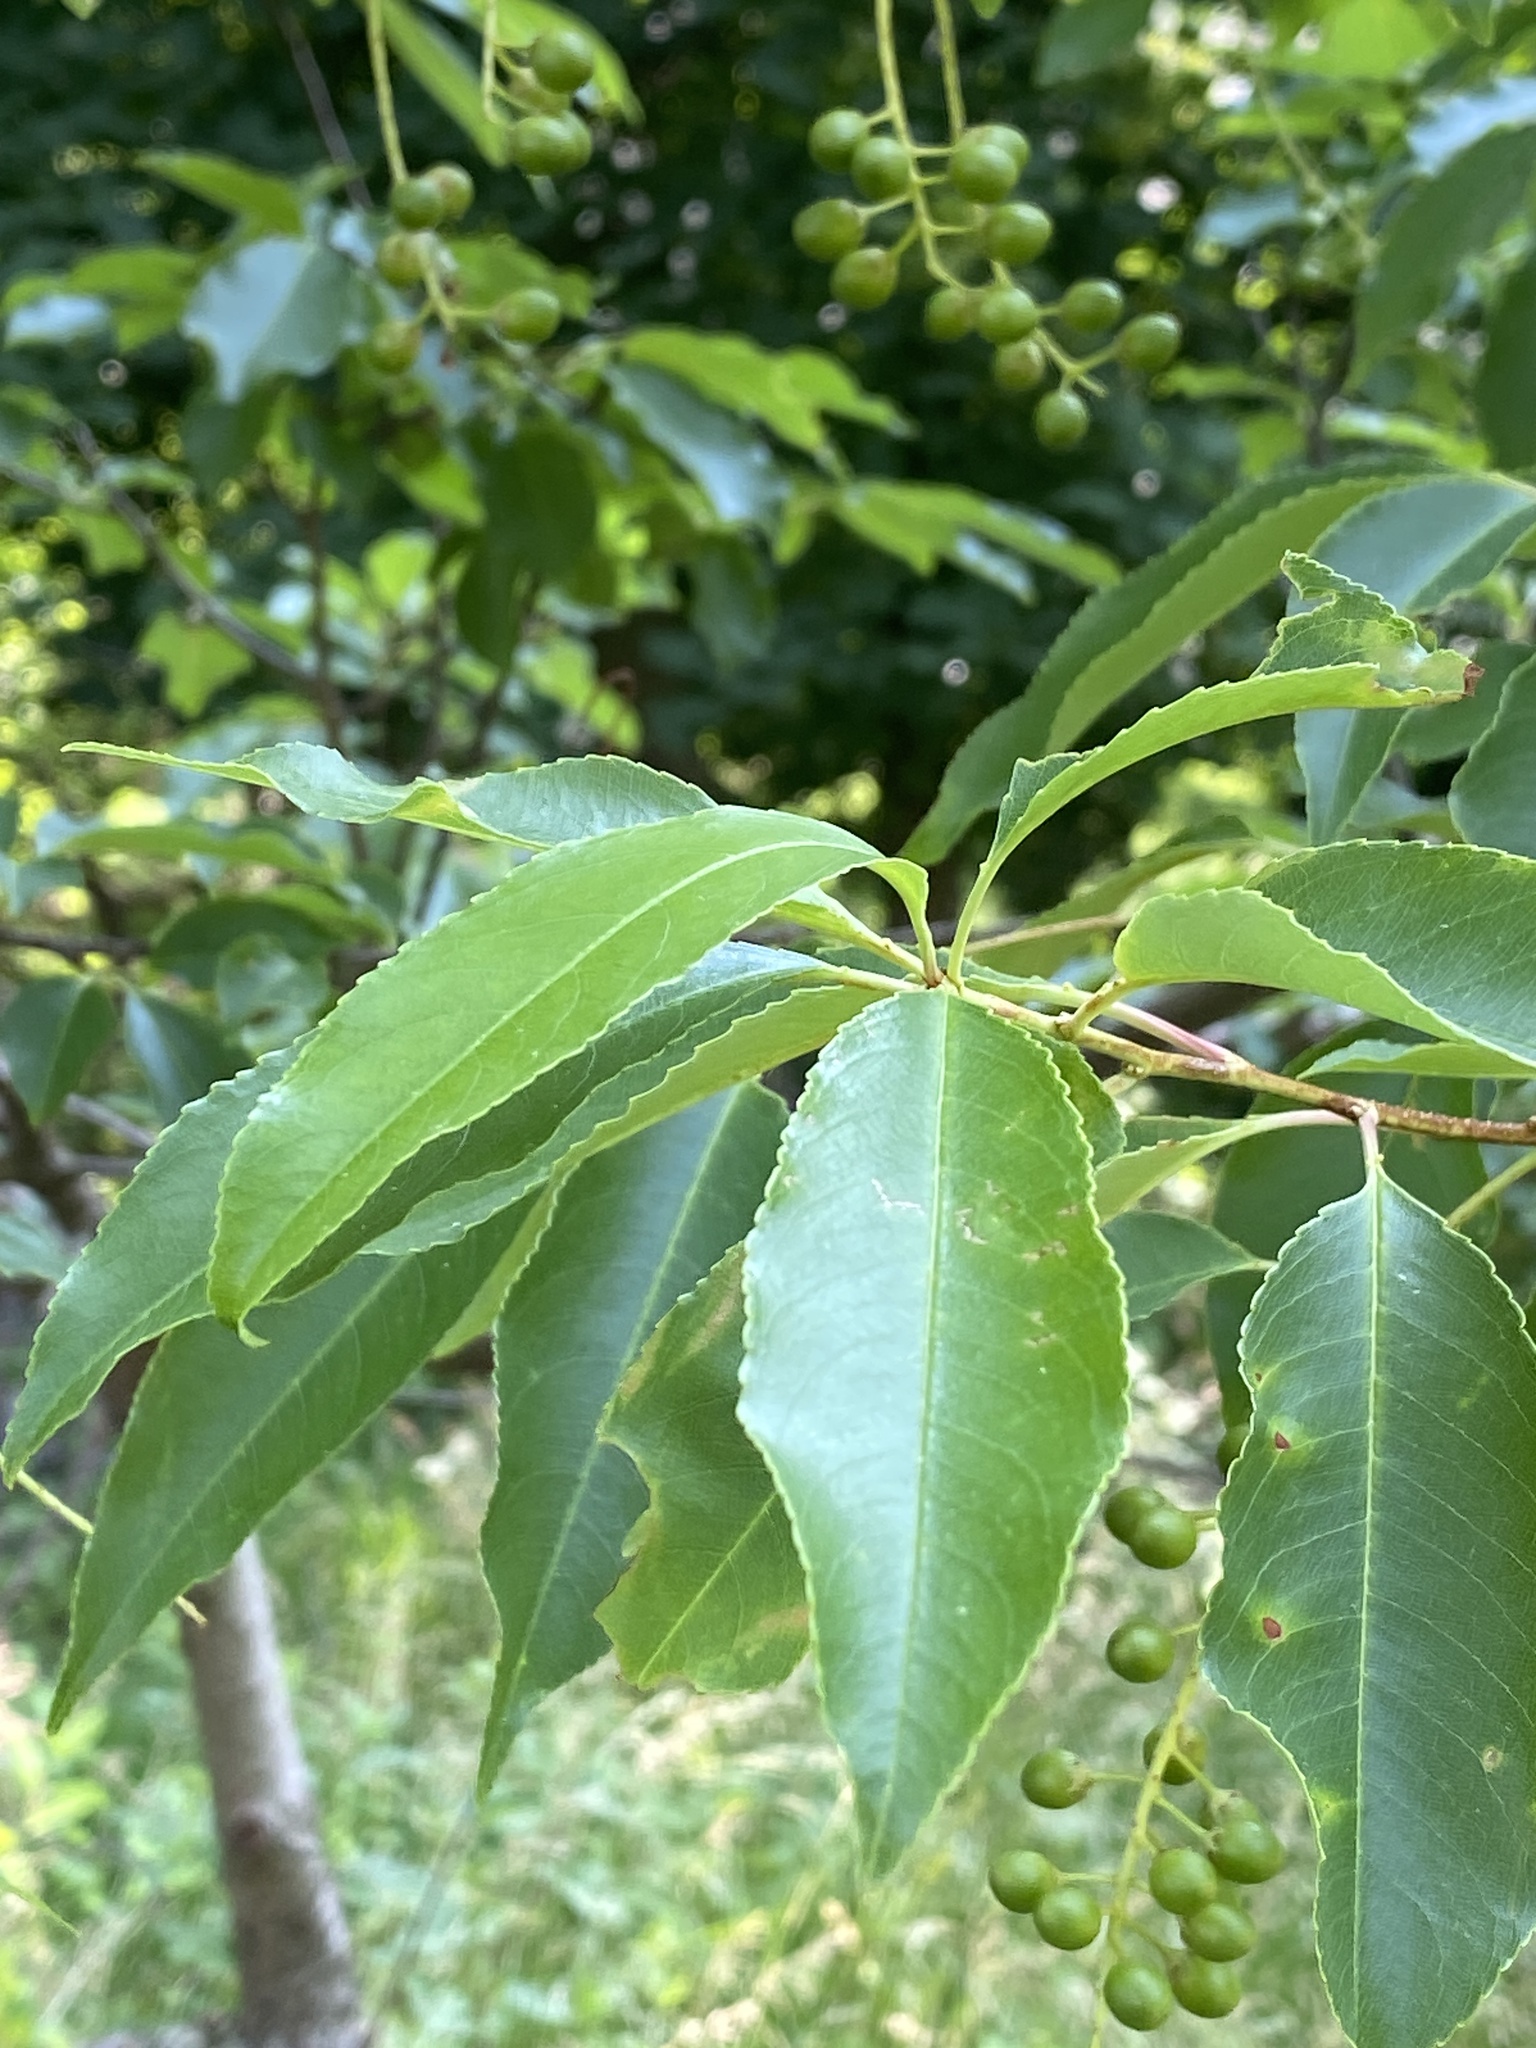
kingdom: Plantae
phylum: Tracheophyta
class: Magnoliopsida
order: Rosales
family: Rosaceae
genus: Prunus
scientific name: Prunus serotina
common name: Black cherry
